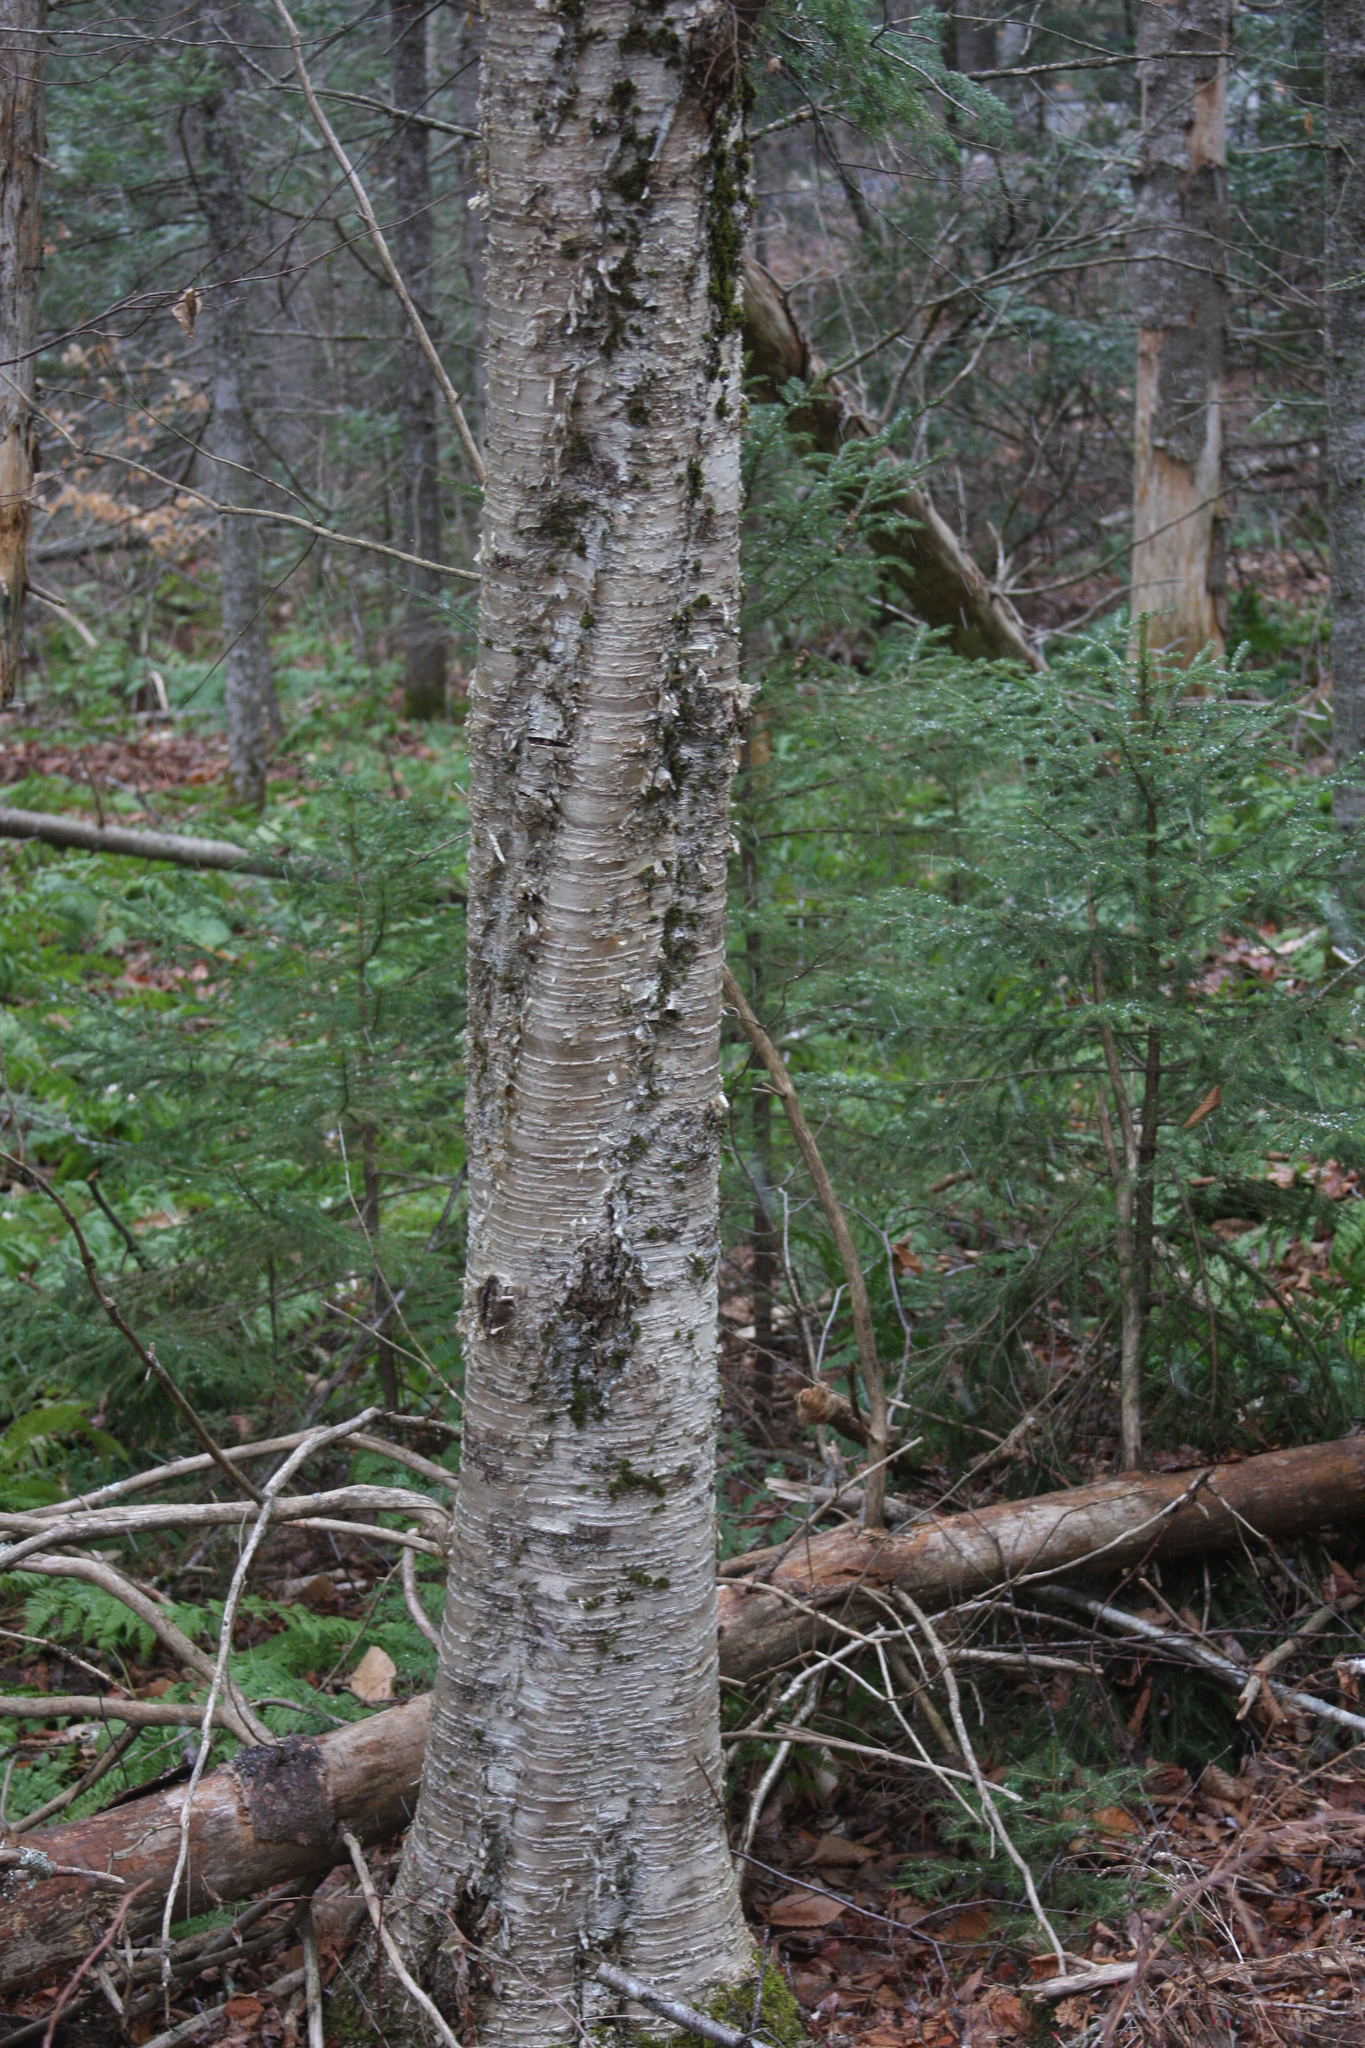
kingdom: Plantae
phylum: Tracheophyta
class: Magnoliopsida
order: Fagales
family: Betulaceae
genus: Betula
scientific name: Betula alleghaniensis
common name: Yellow birch
